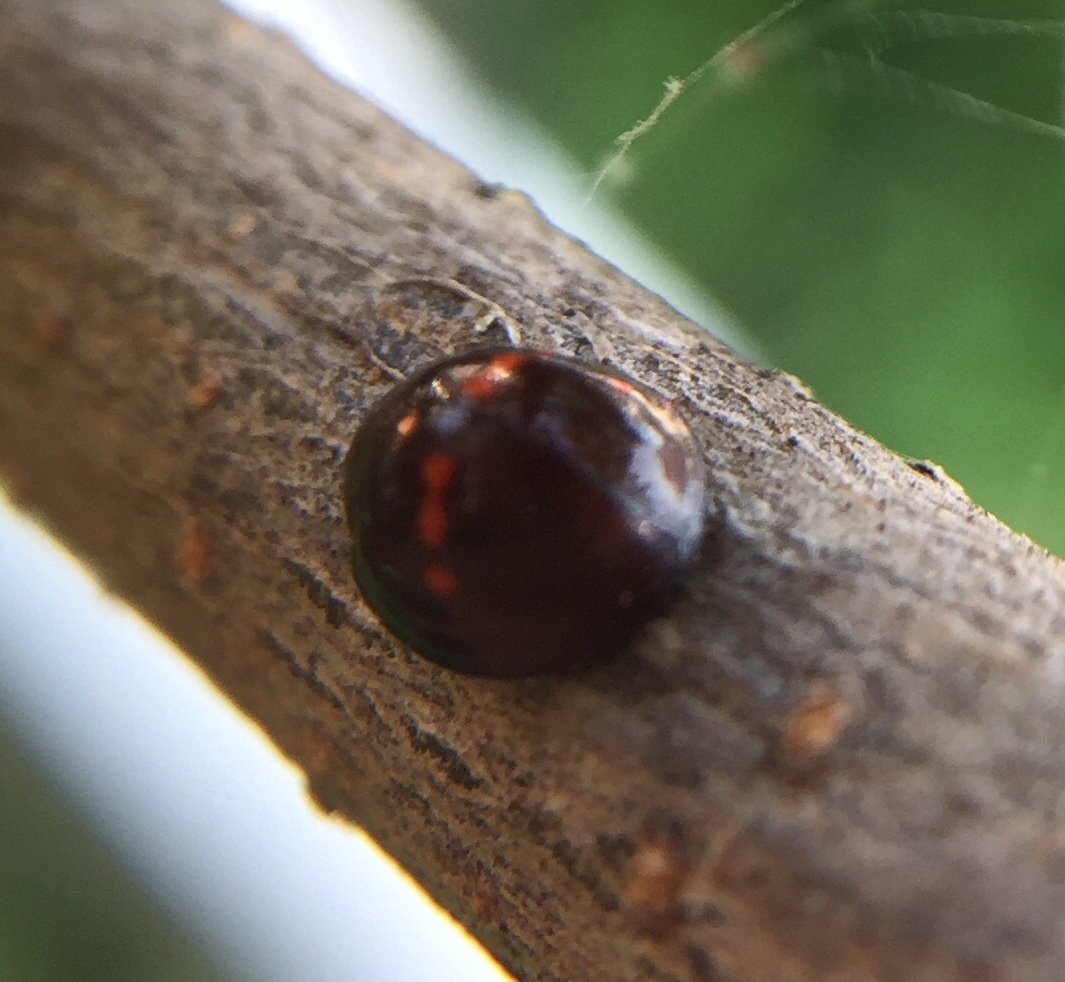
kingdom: Animalia
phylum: Arthropoda
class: Insecta
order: Coleoptera
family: Coccinellidae
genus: Chilocorus
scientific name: Chilocorus bipustulatus
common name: Heather ladybird
